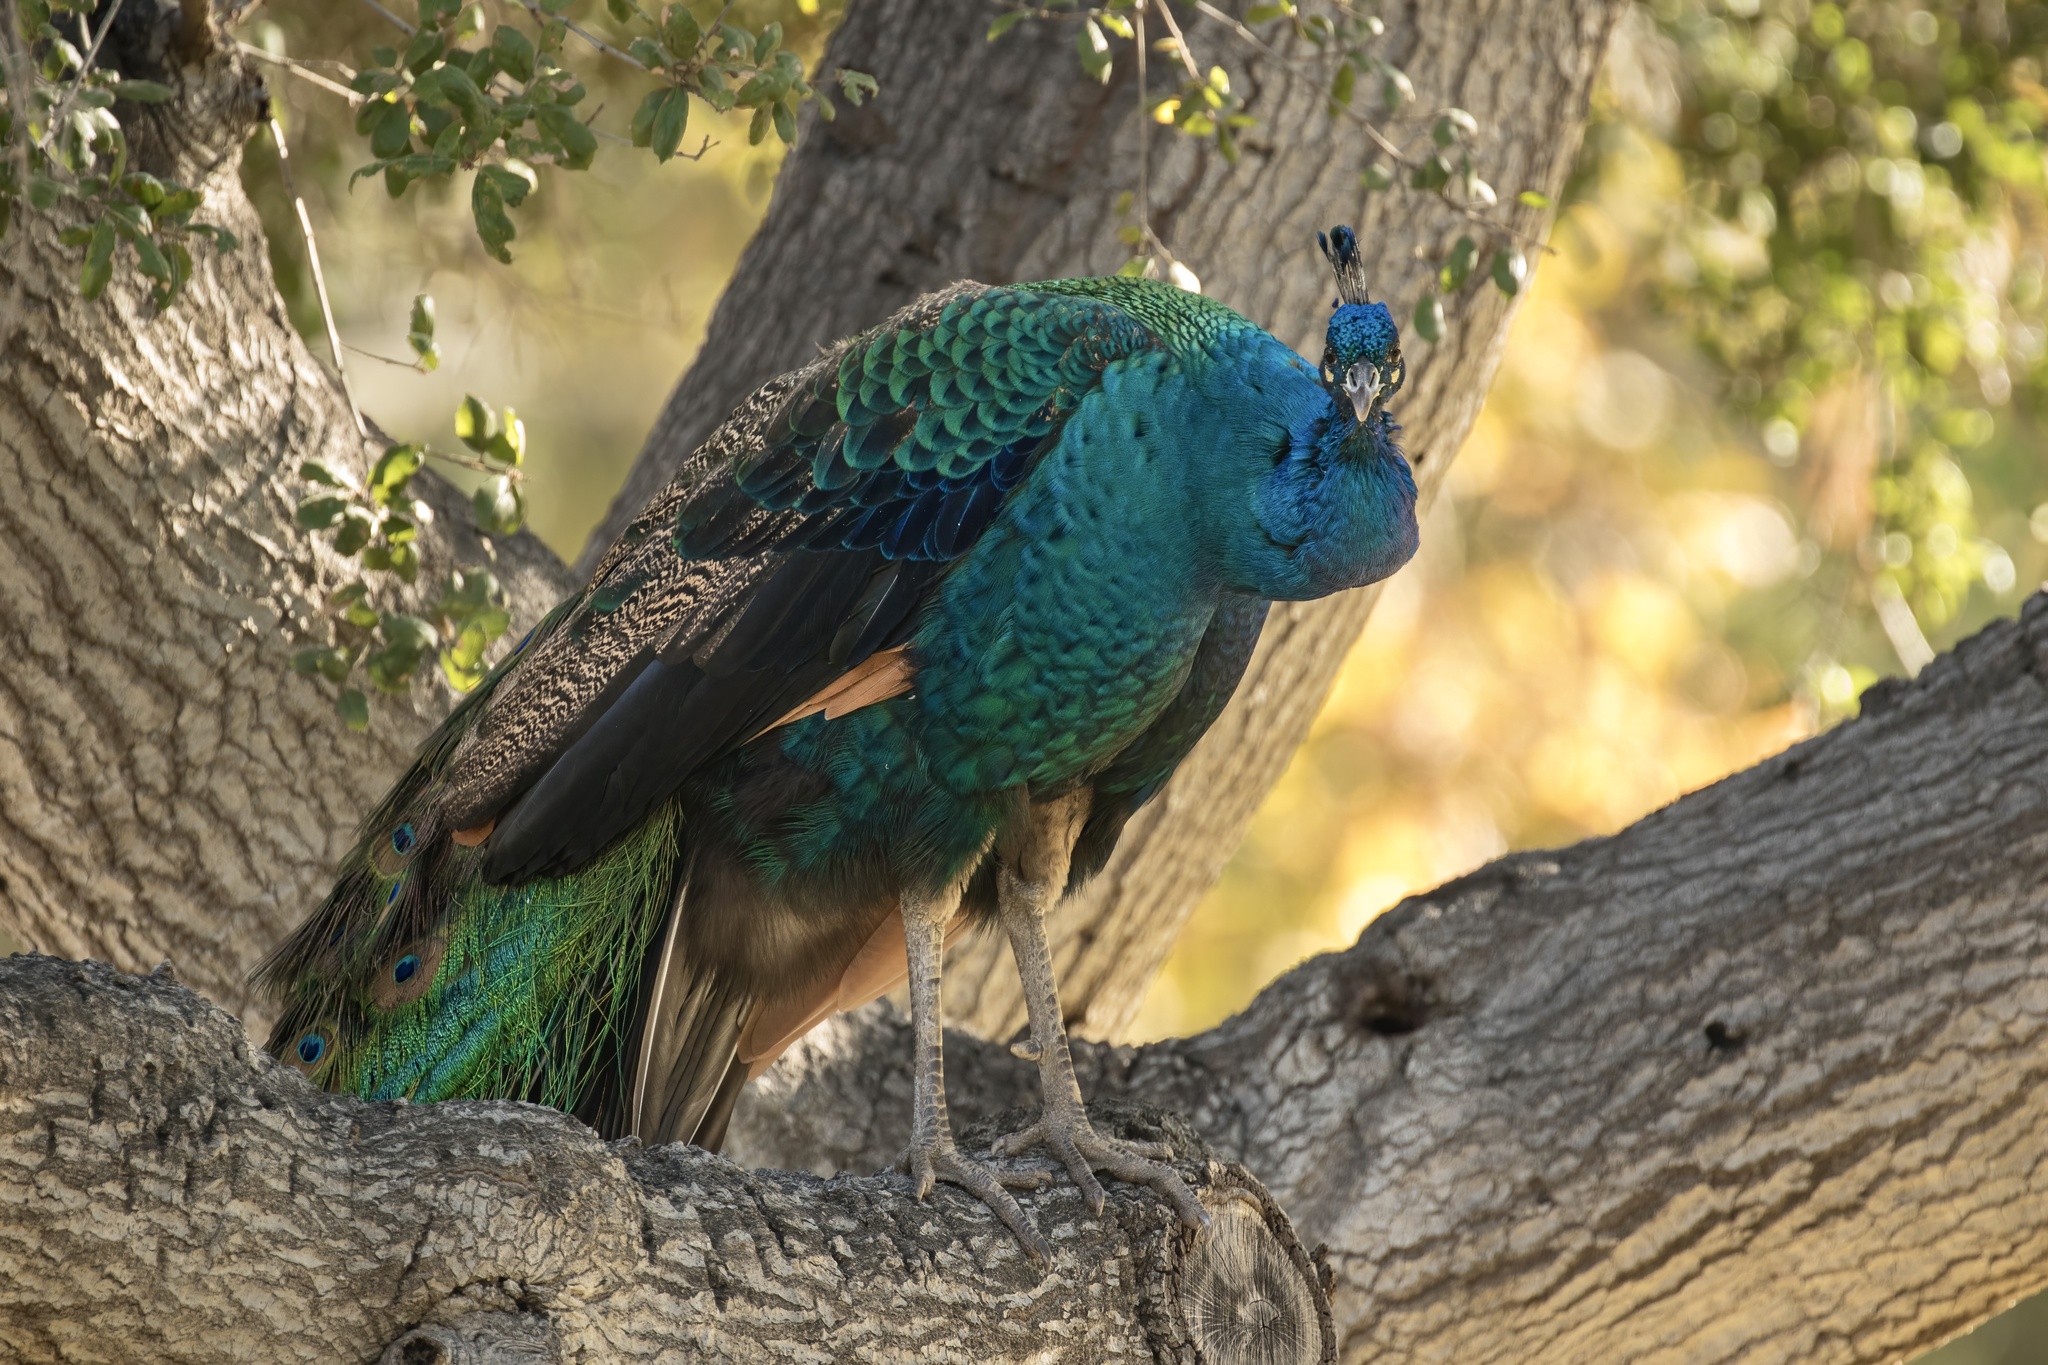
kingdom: Animalia
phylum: Chordata
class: Aves
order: Galliformes
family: Phasianidae
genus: Pavo
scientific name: Pavo cristatus
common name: Indian peafowl
